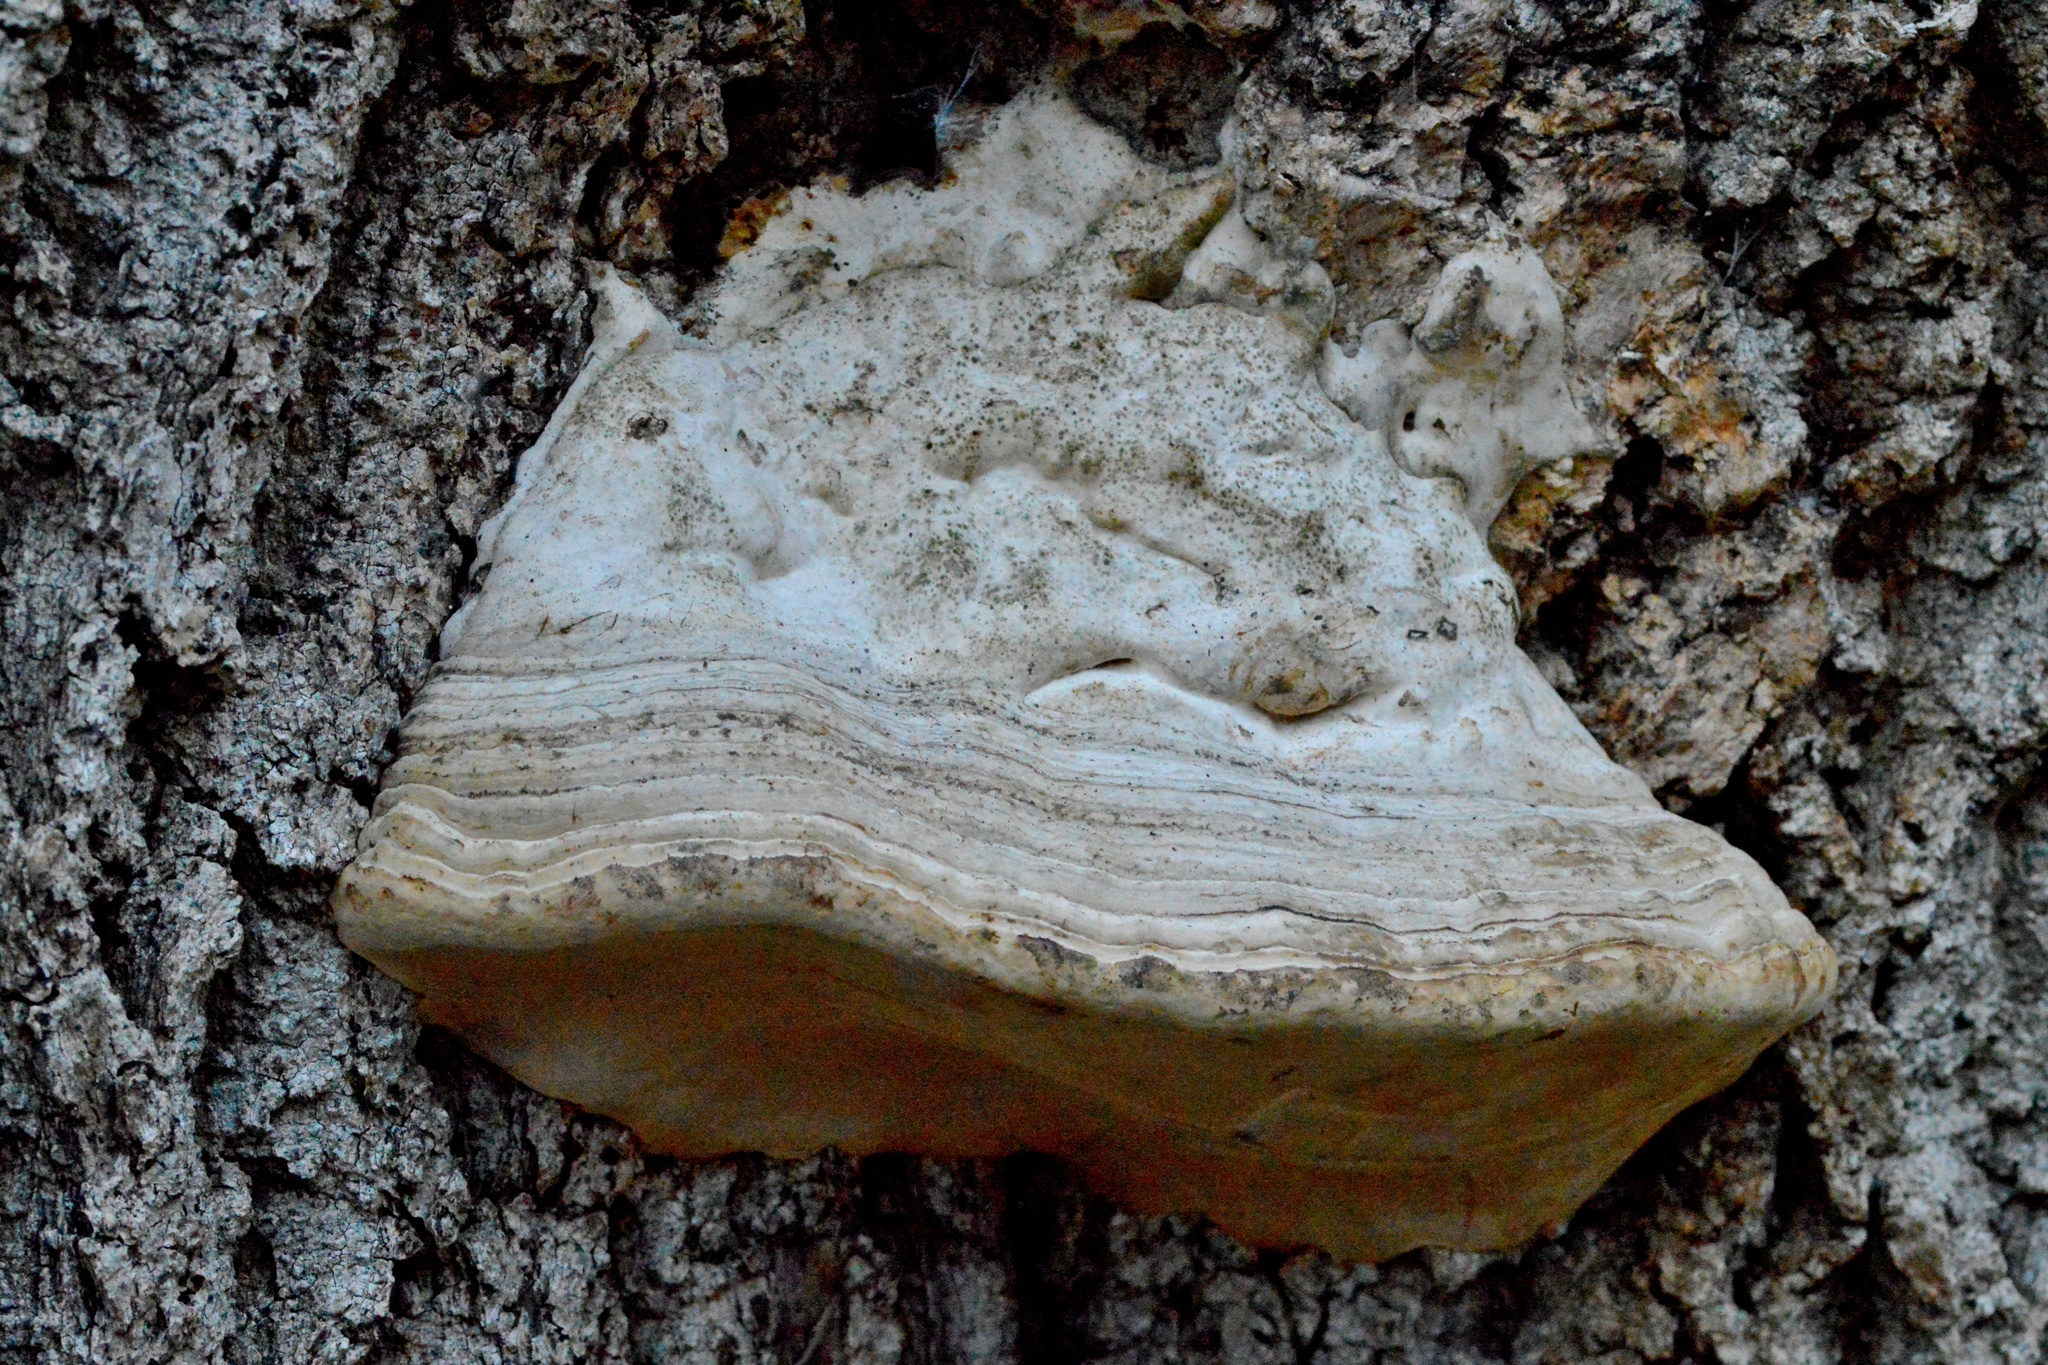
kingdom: Fungi
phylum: Basidiomycota
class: Agaricomycetes
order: Polyporales
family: Polyporaceae
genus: Fomes
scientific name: Fomes fomentarius
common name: Hoof fungus
